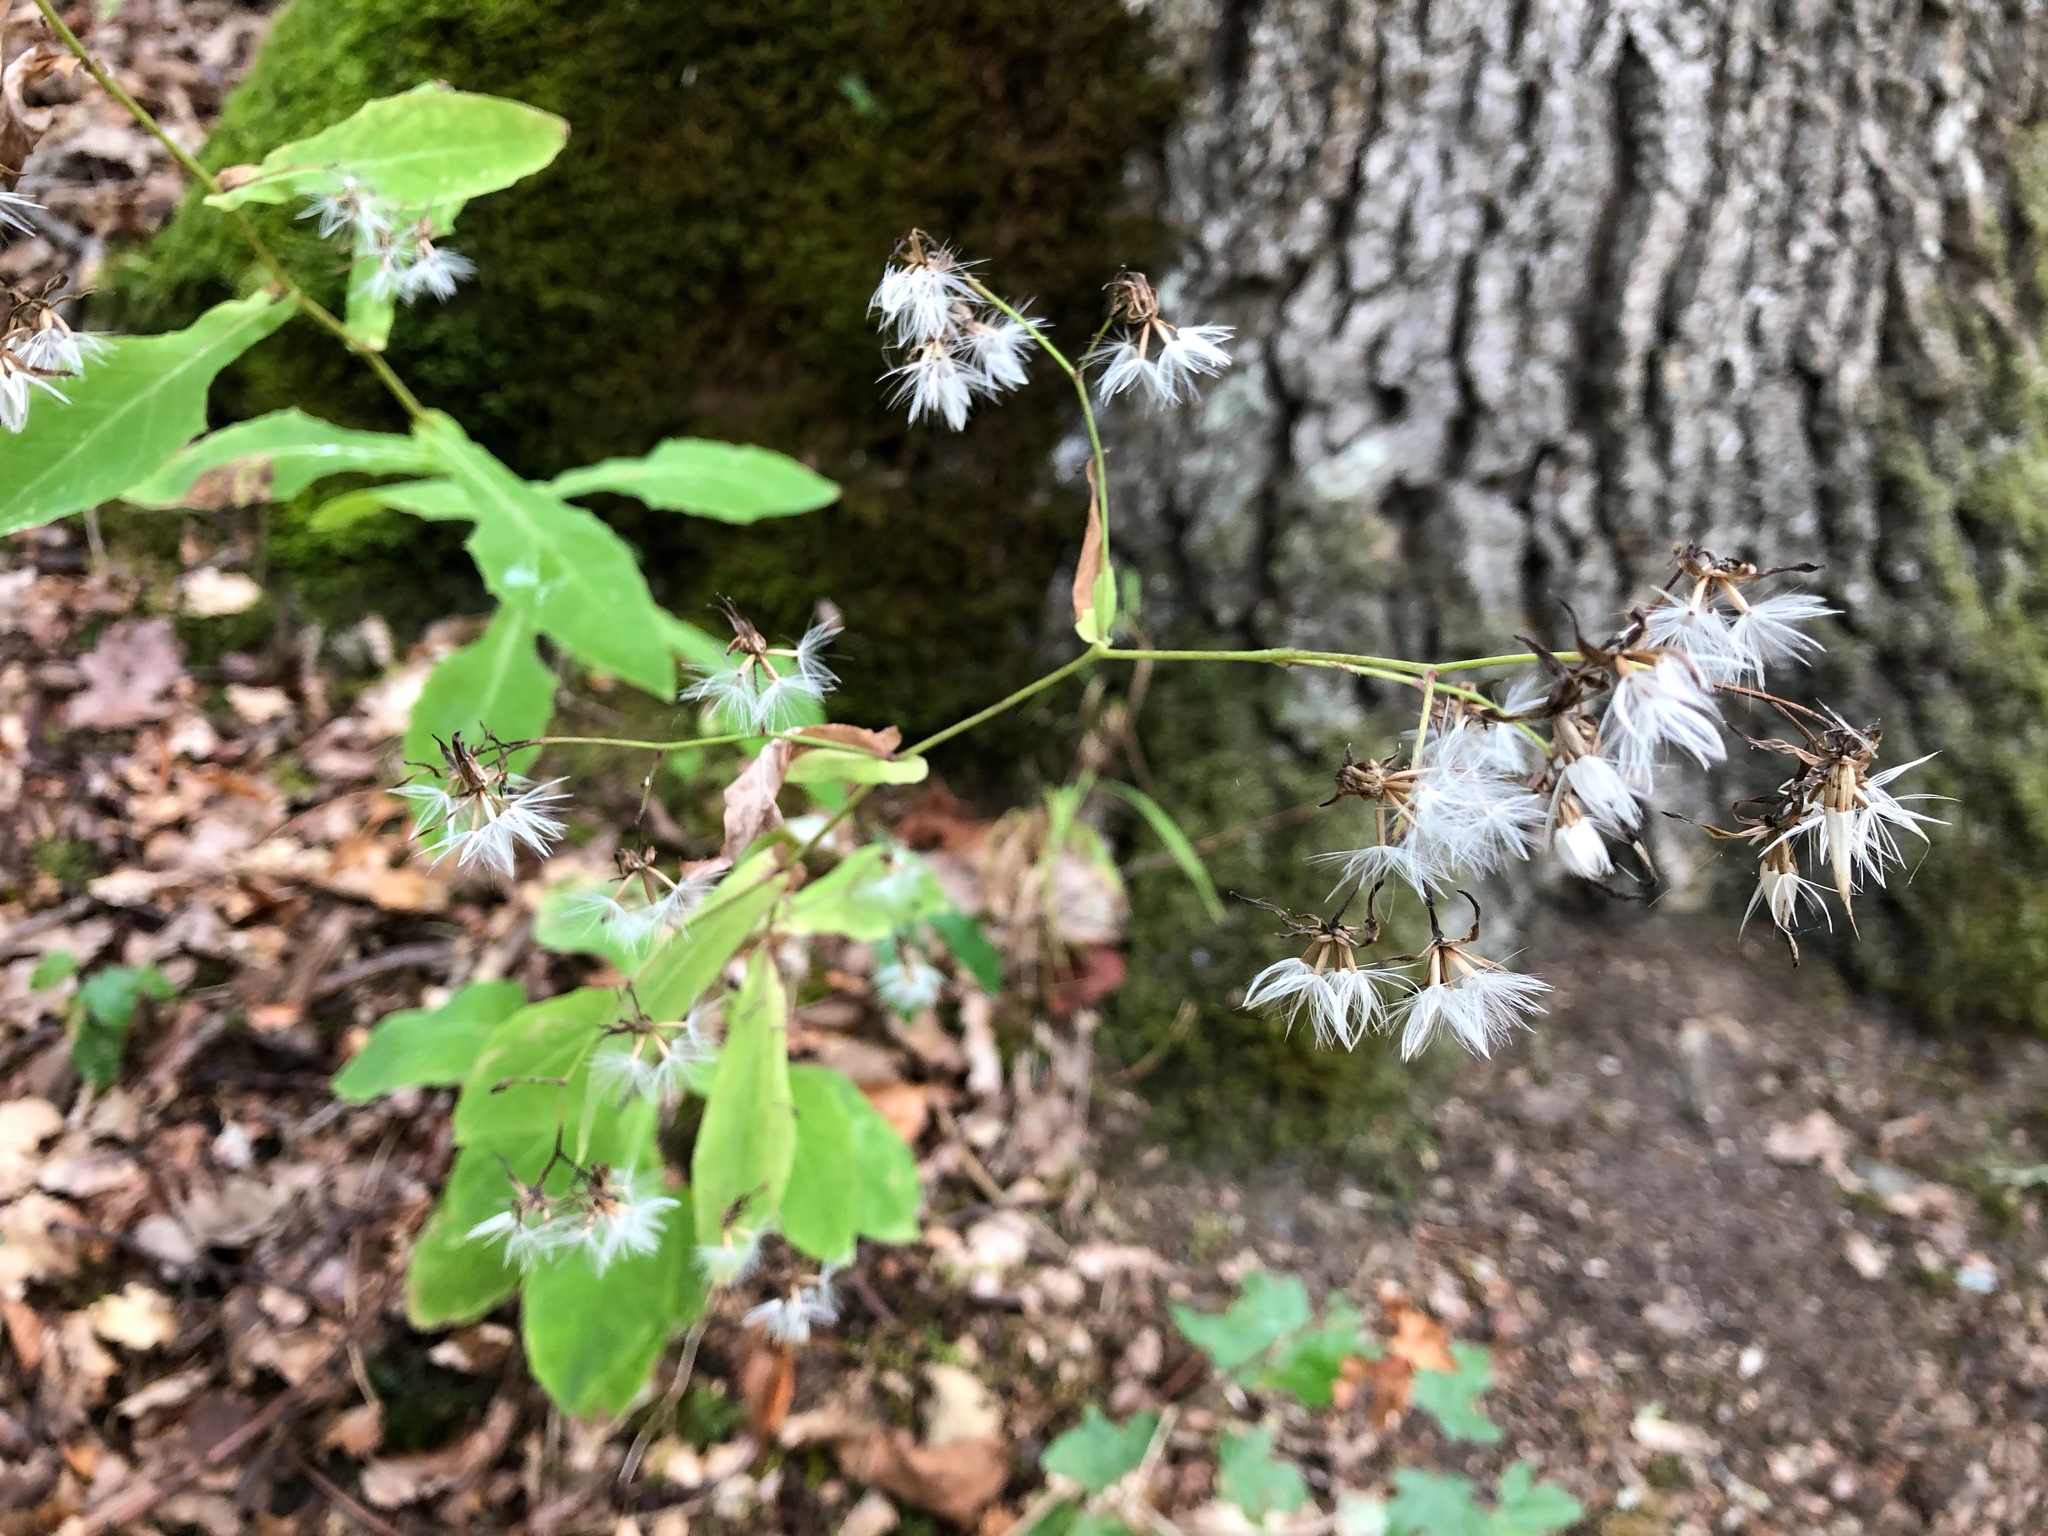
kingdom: Plantae
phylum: Tracheophyta
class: Magnoliopsida
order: Asterales
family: Asteraceae
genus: Prenanthes
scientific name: Prenanthes purpurea
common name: Purple lettuce
